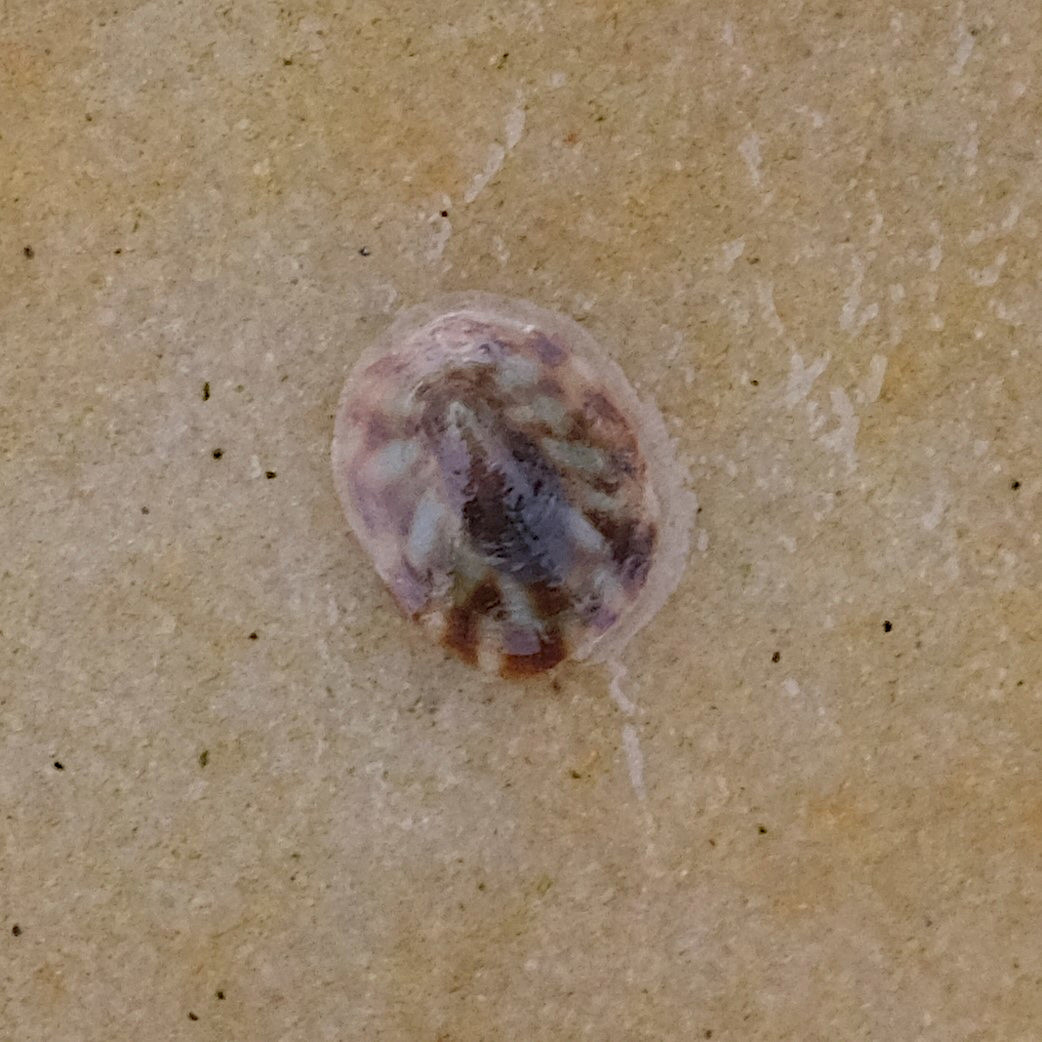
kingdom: Animalia
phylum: Mollusca
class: Gastropoda
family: Lottiidae
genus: Testudinalia
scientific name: Testudinalia testudinalis
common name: Common tortoiseshell limpet
